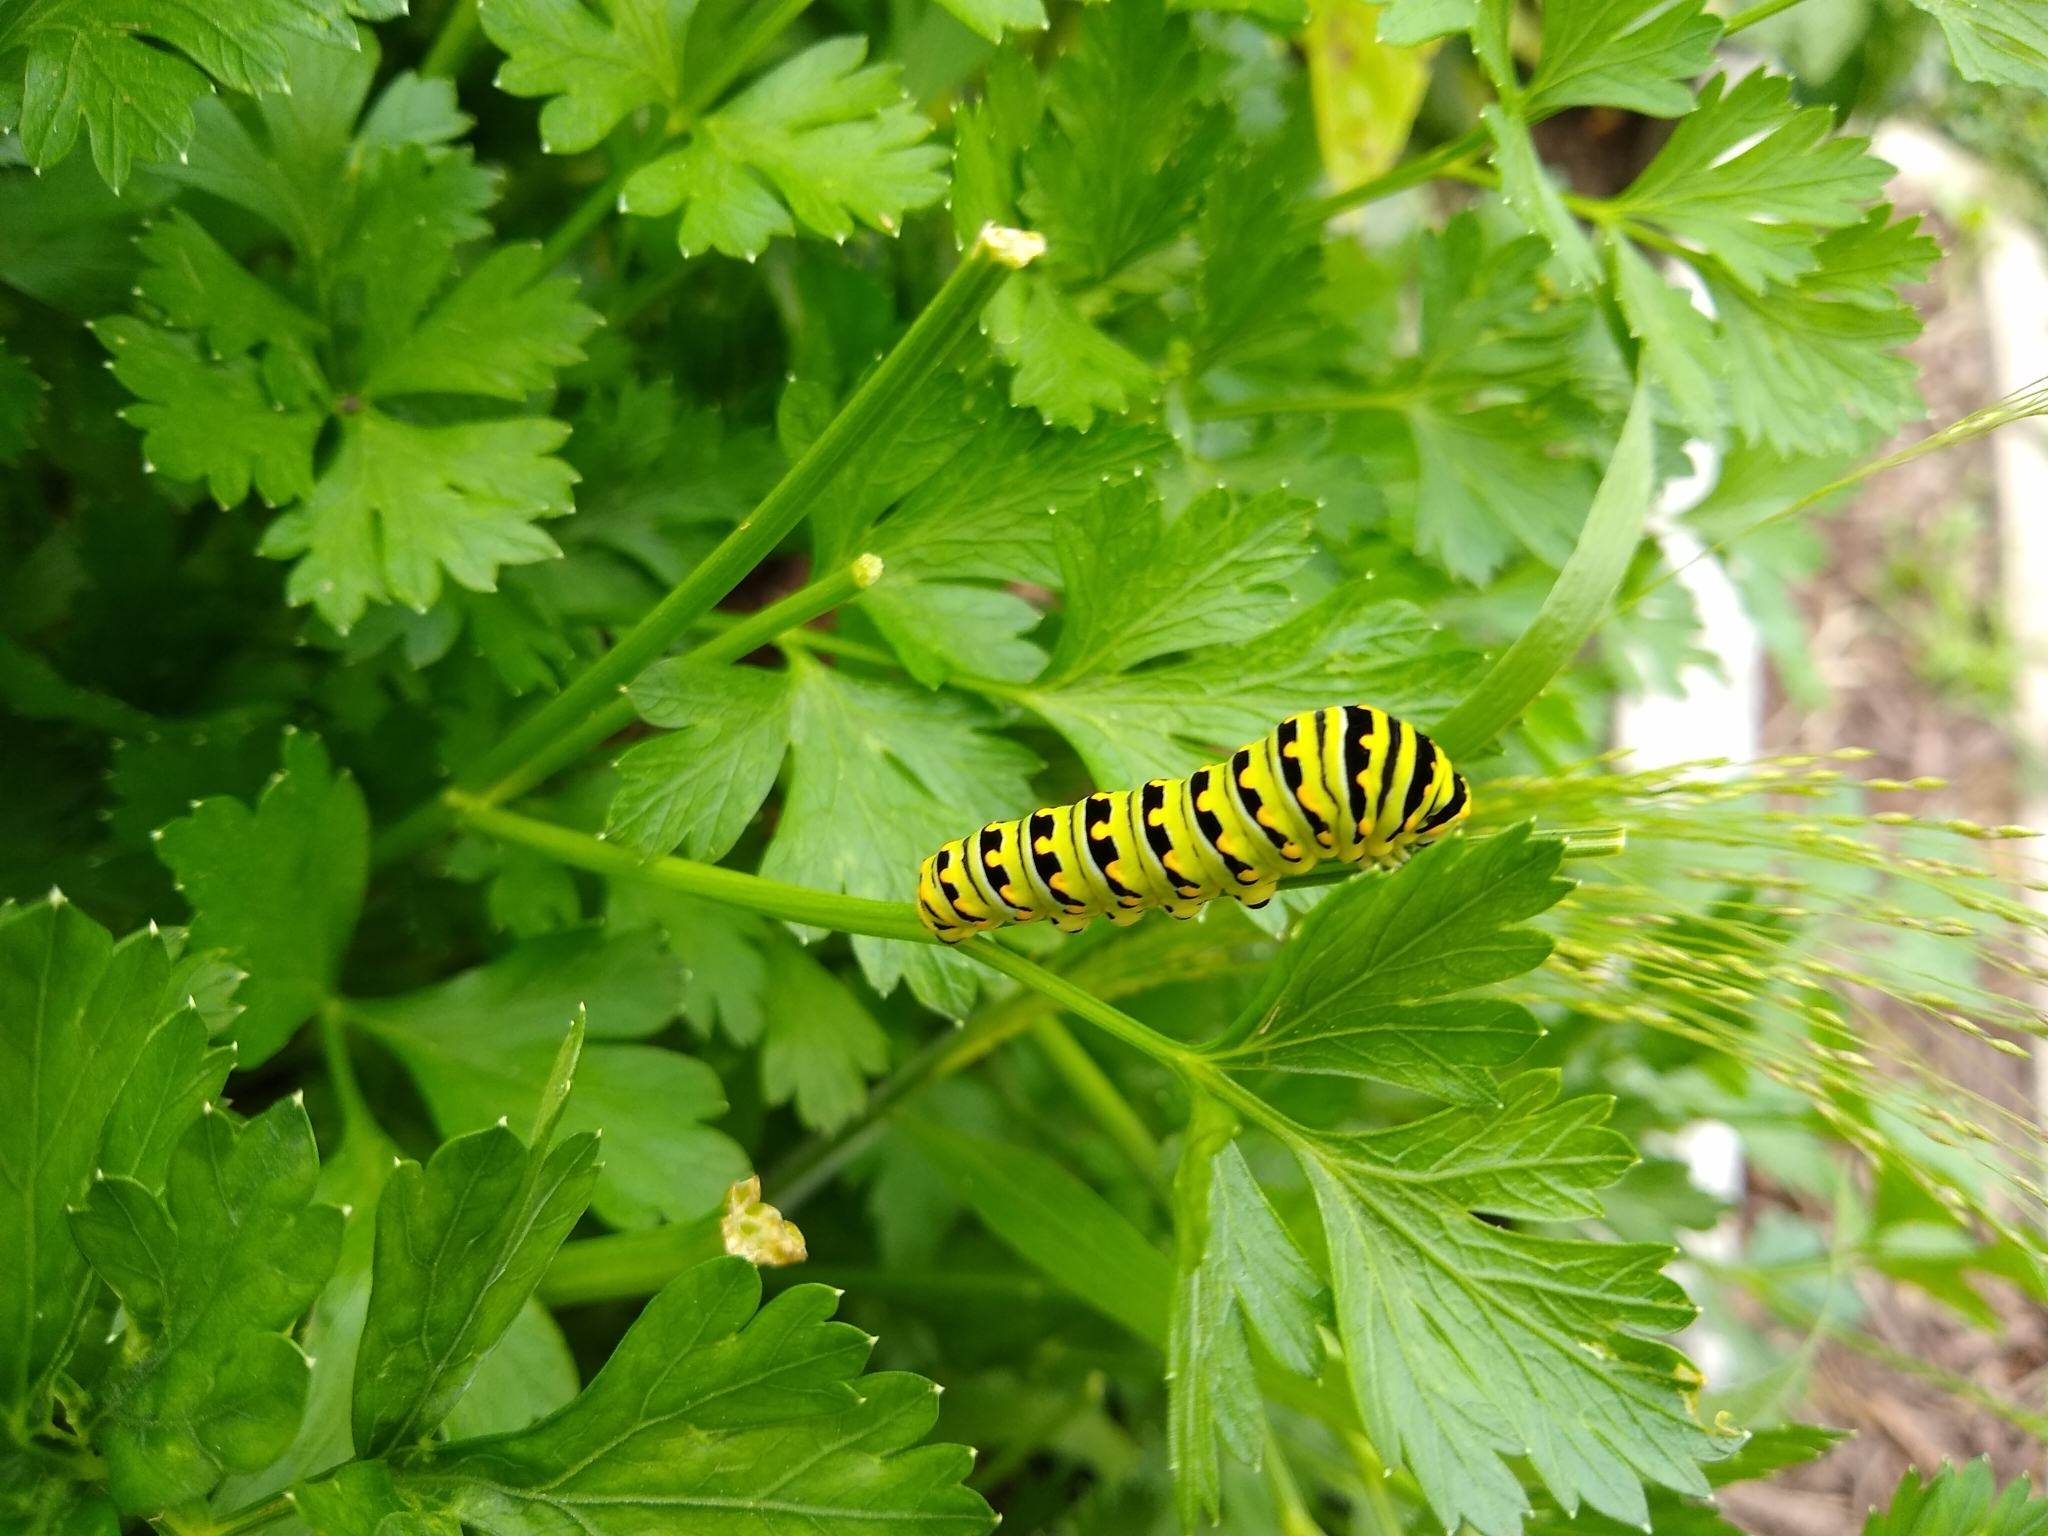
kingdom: Animalia
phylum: Arthropoda
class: Insecta
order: Lepidoptera
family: Papilionidae
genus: Papilio
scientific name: Papilio polyxenes
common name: Black swallowtail
